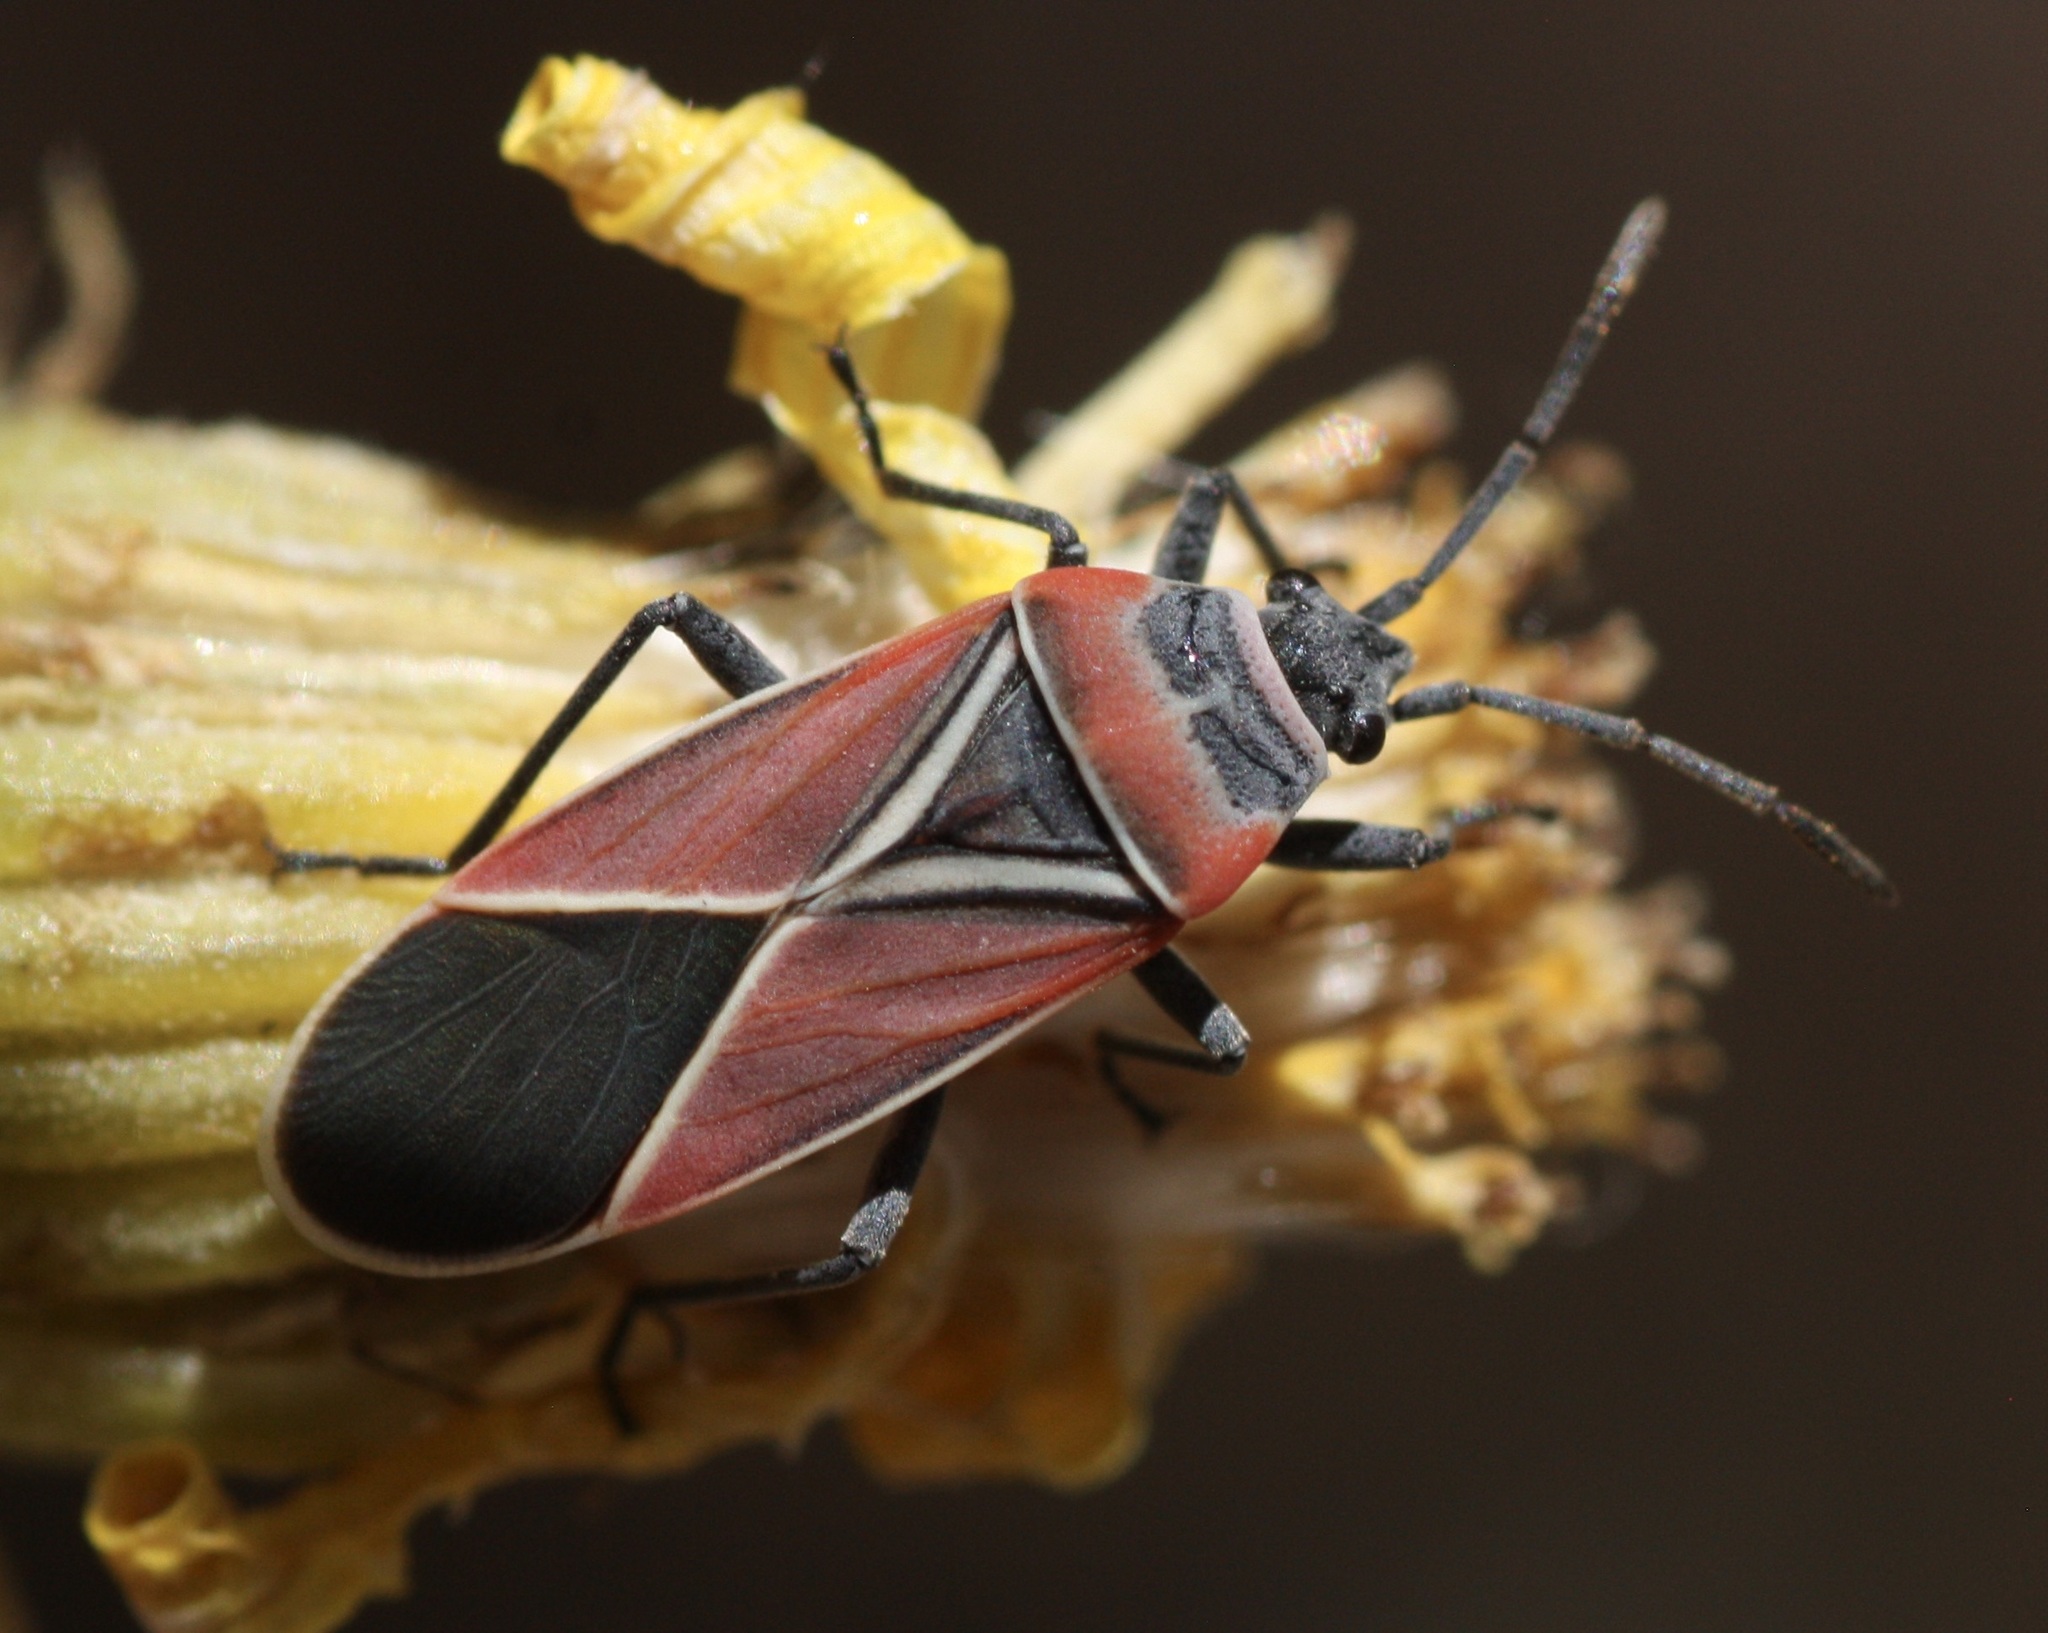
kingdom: Animalia
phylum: Arthropoda
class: Insecta
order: Hemiptera
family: Lygaeidae
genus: Neacoryphus
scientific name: Neacoryphus bicrucis
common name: Lygaeid bug
